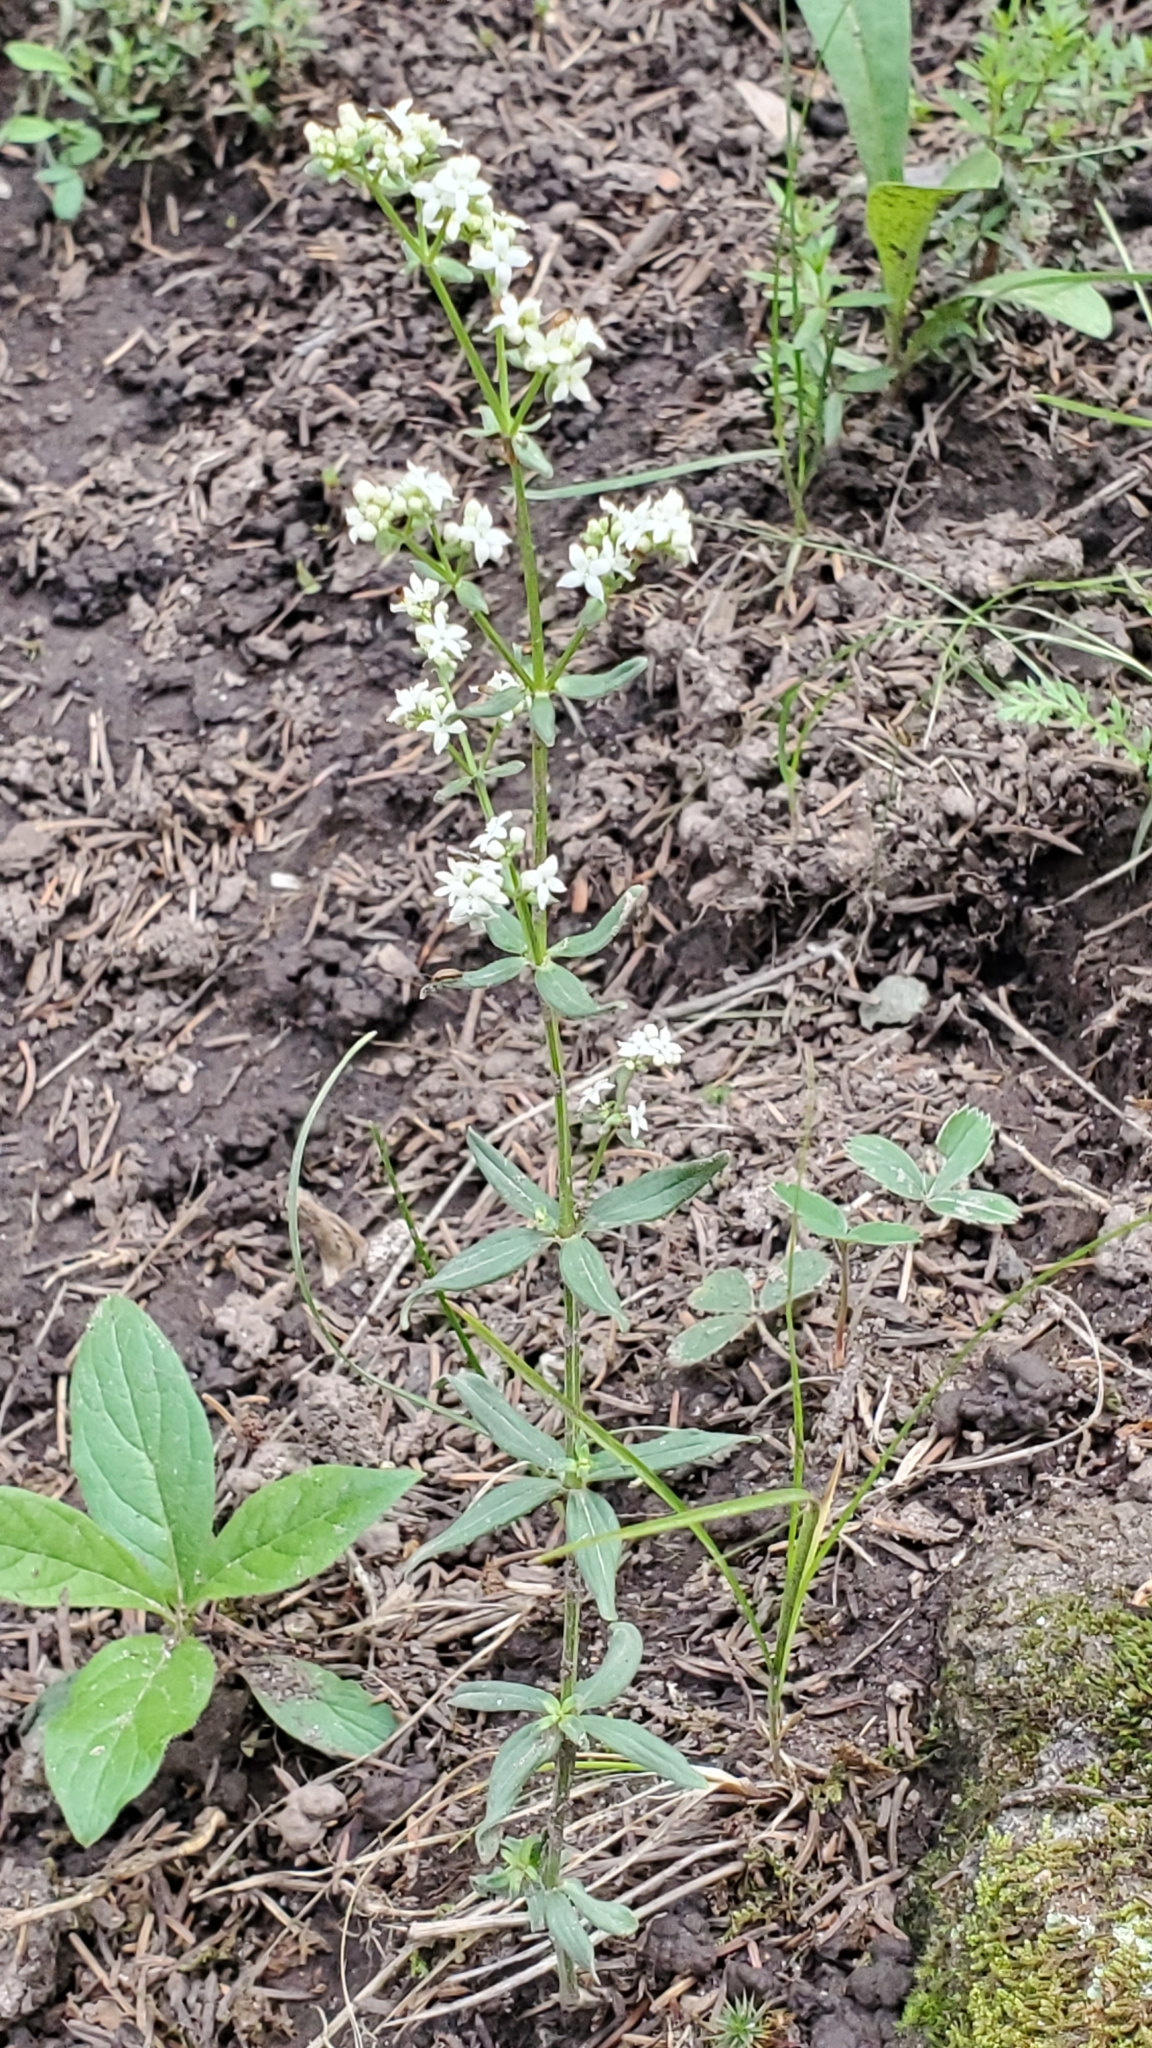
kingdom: Plantae
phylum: Tracheophyta
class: Magnoliopsida
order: Gentianales
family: Rubiaceae
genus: Galium
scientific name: Galium boreale
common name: Northern bedstraw
